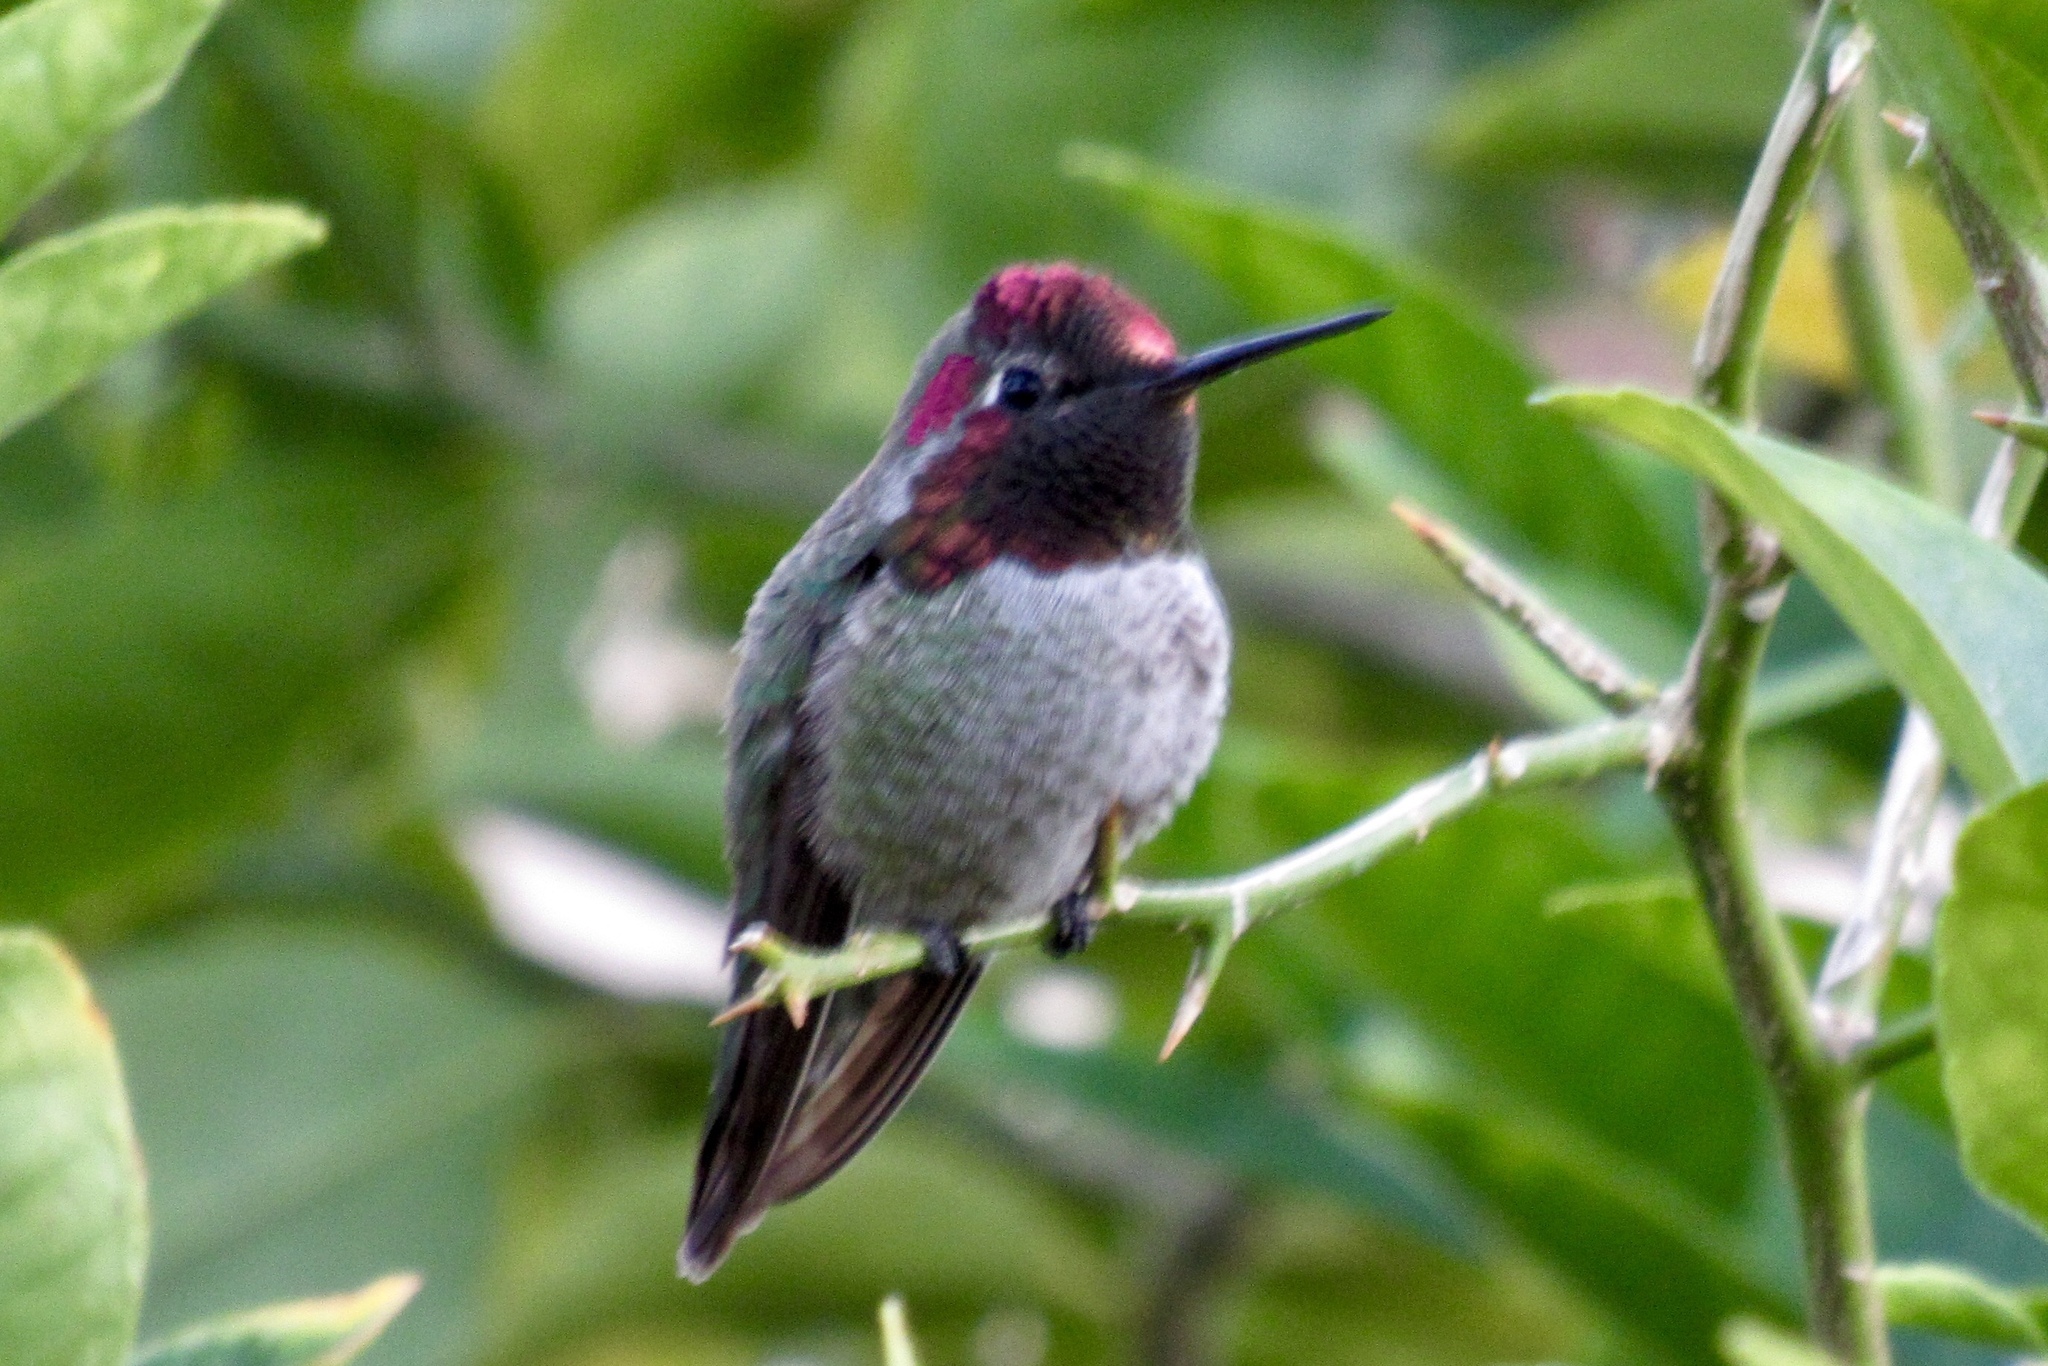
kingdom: Animalia
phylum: Chordata
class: Aves
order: Apodiformes
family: Trochilidae
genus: Calypte
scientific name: Calypte anna
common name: Anna's hummingbird
